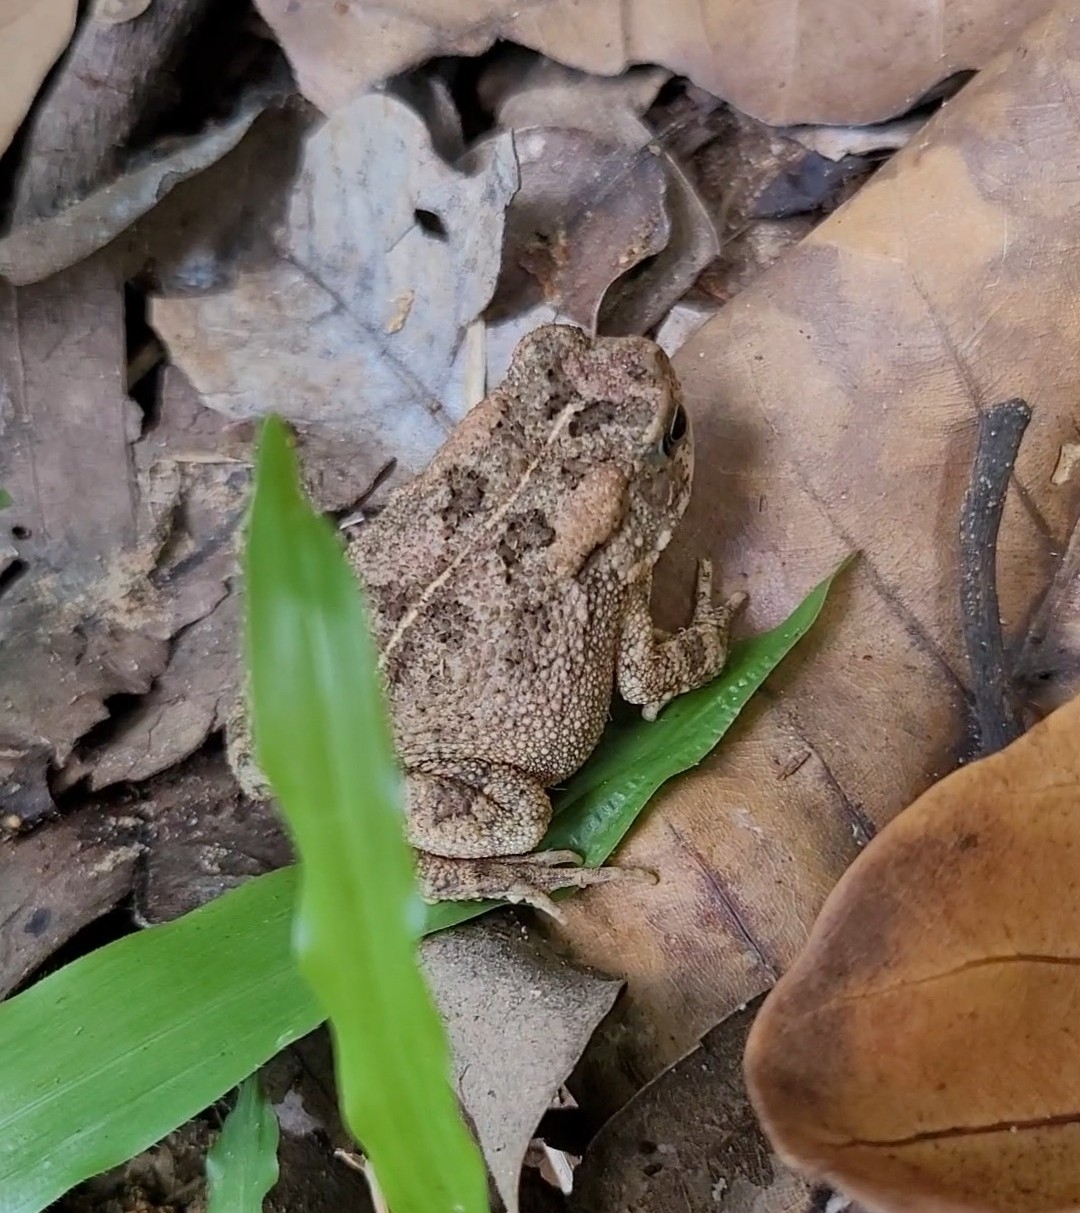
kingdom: Animalia
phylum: Chordata
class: Amphibia
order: Anura
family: Bufonidae
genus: Sclerophrys
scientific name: Sclerophrys gutturalis
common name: African common toad
